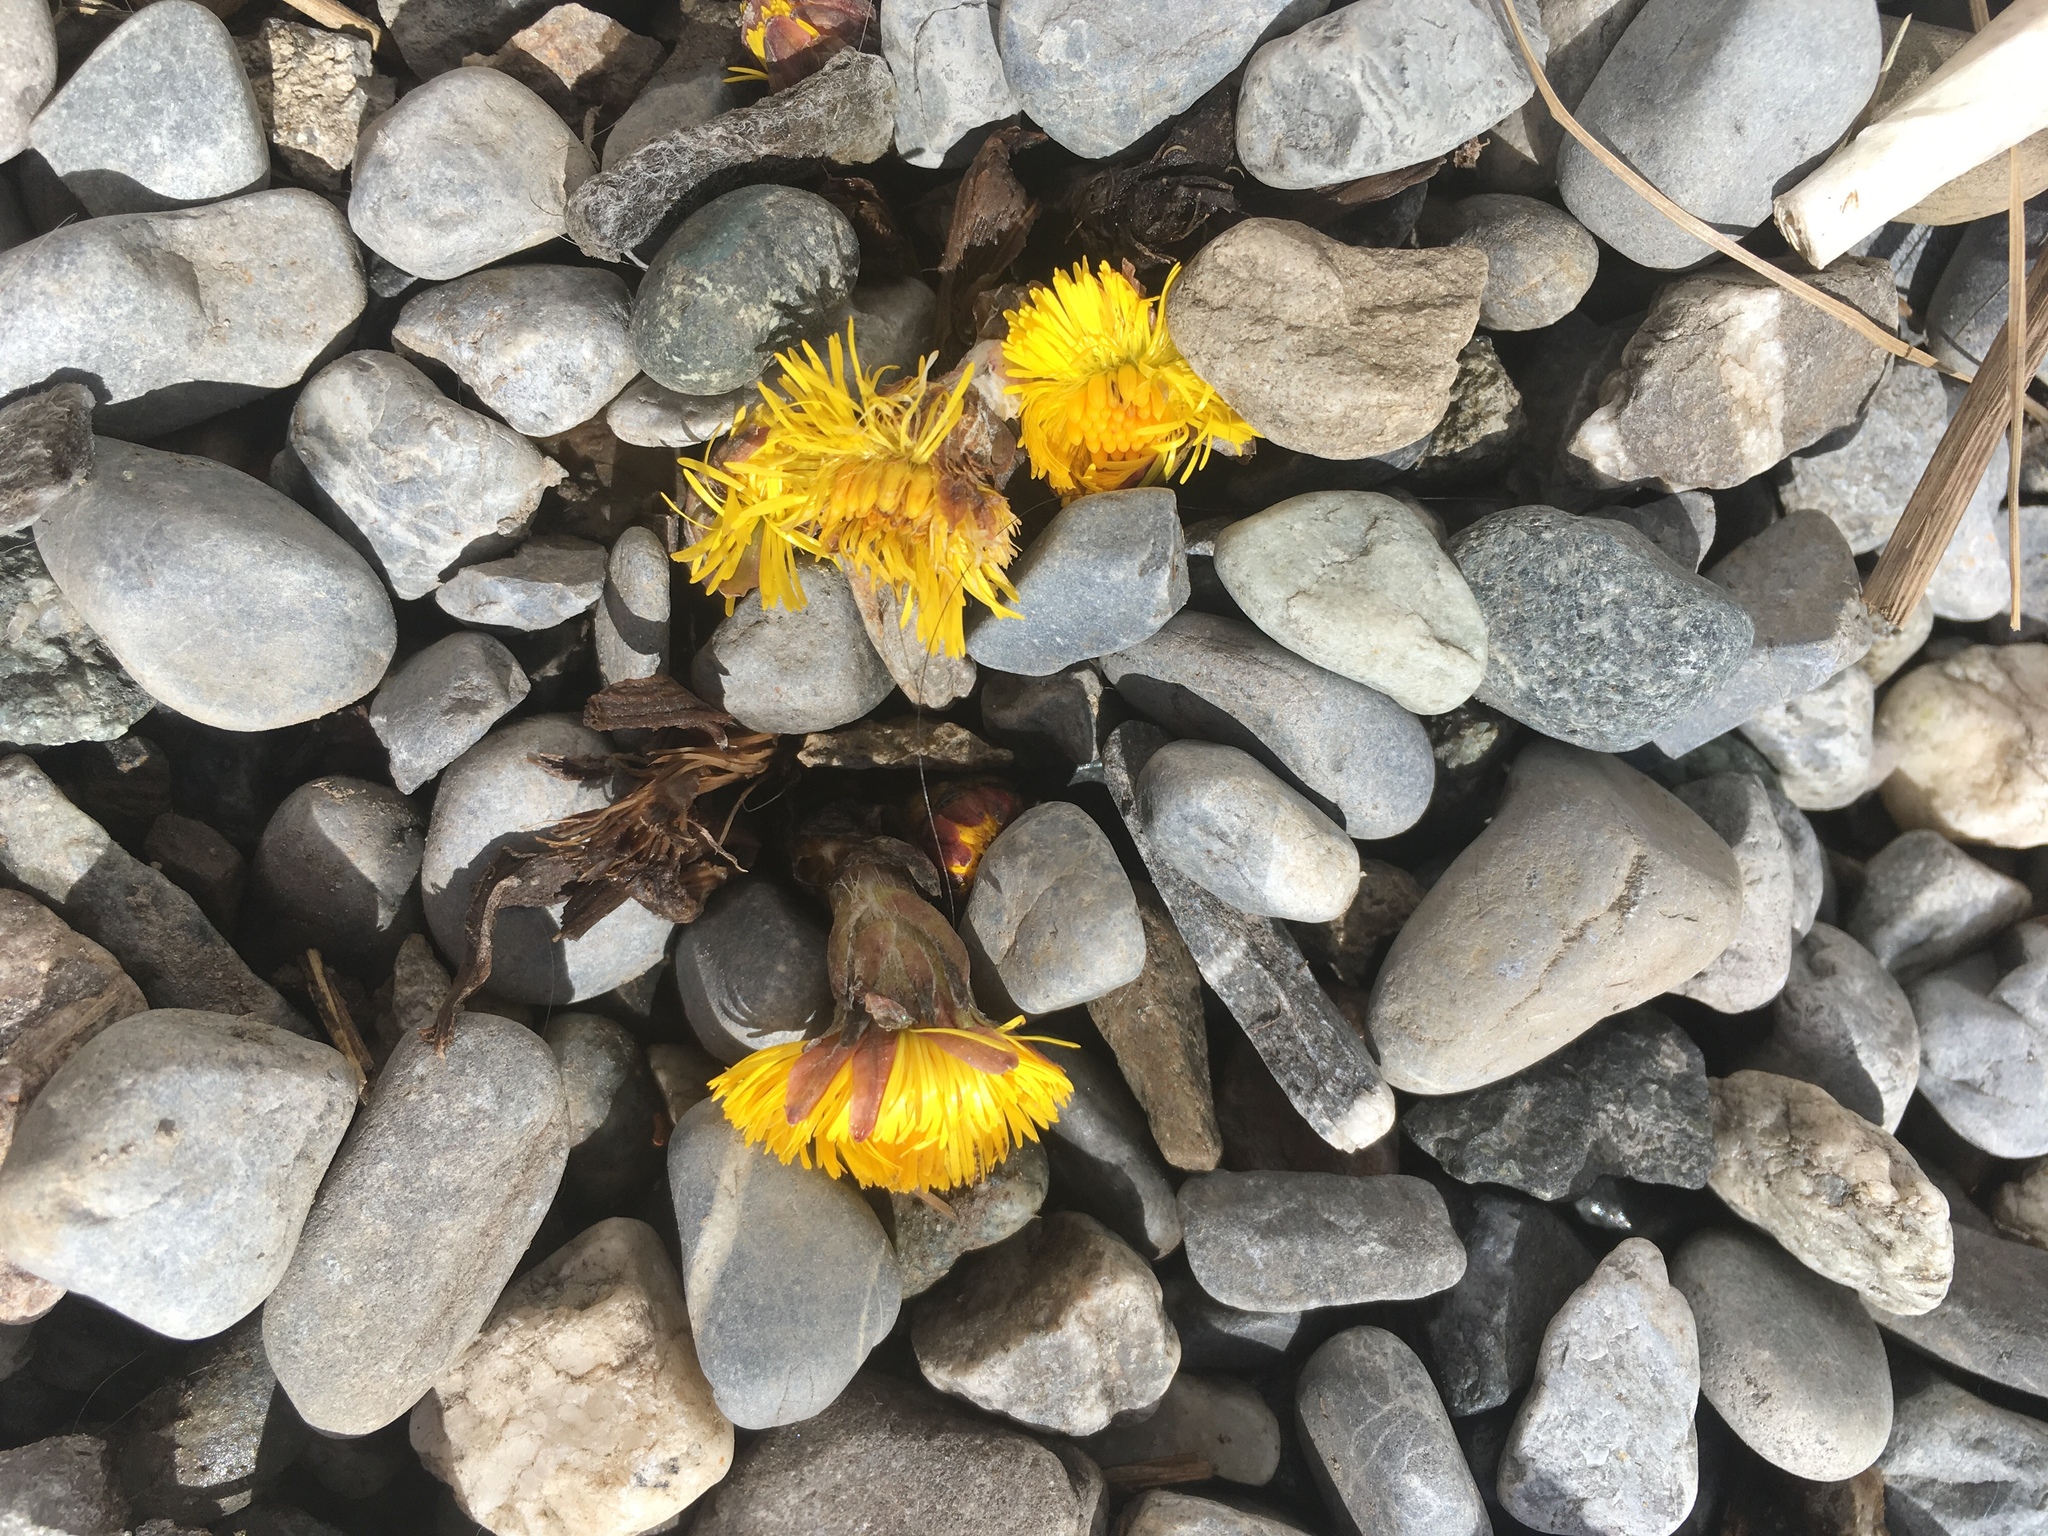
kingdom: Plantae
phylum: Tracheophyta
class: Magnoliopsida
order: Asterales
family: Asteraceae
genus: Tussilago
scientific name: Tussilago farfara
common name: Coltsfoot
